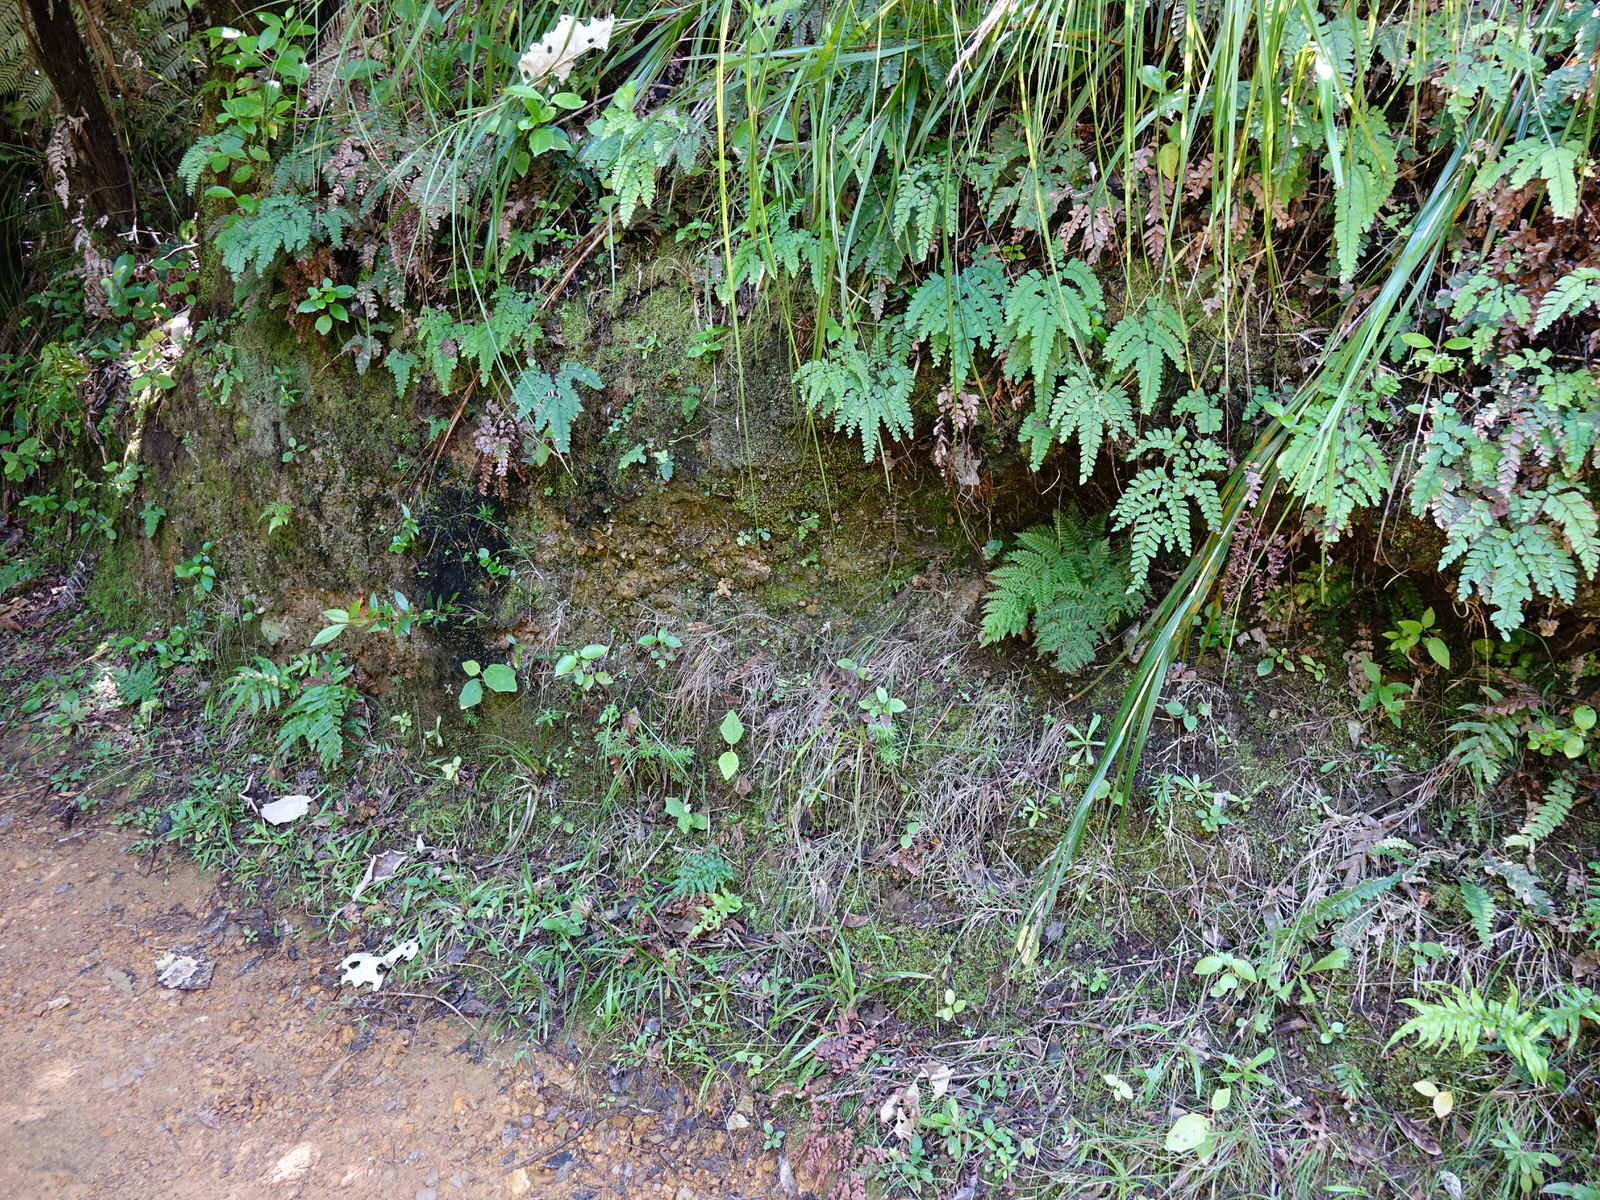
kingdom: Plantae
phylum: Tracheophyta
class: Polypodiopsida
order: Osmundales
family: Osmundaceae
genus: Leptopteris
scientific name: Leptopteris hymenophylloides
